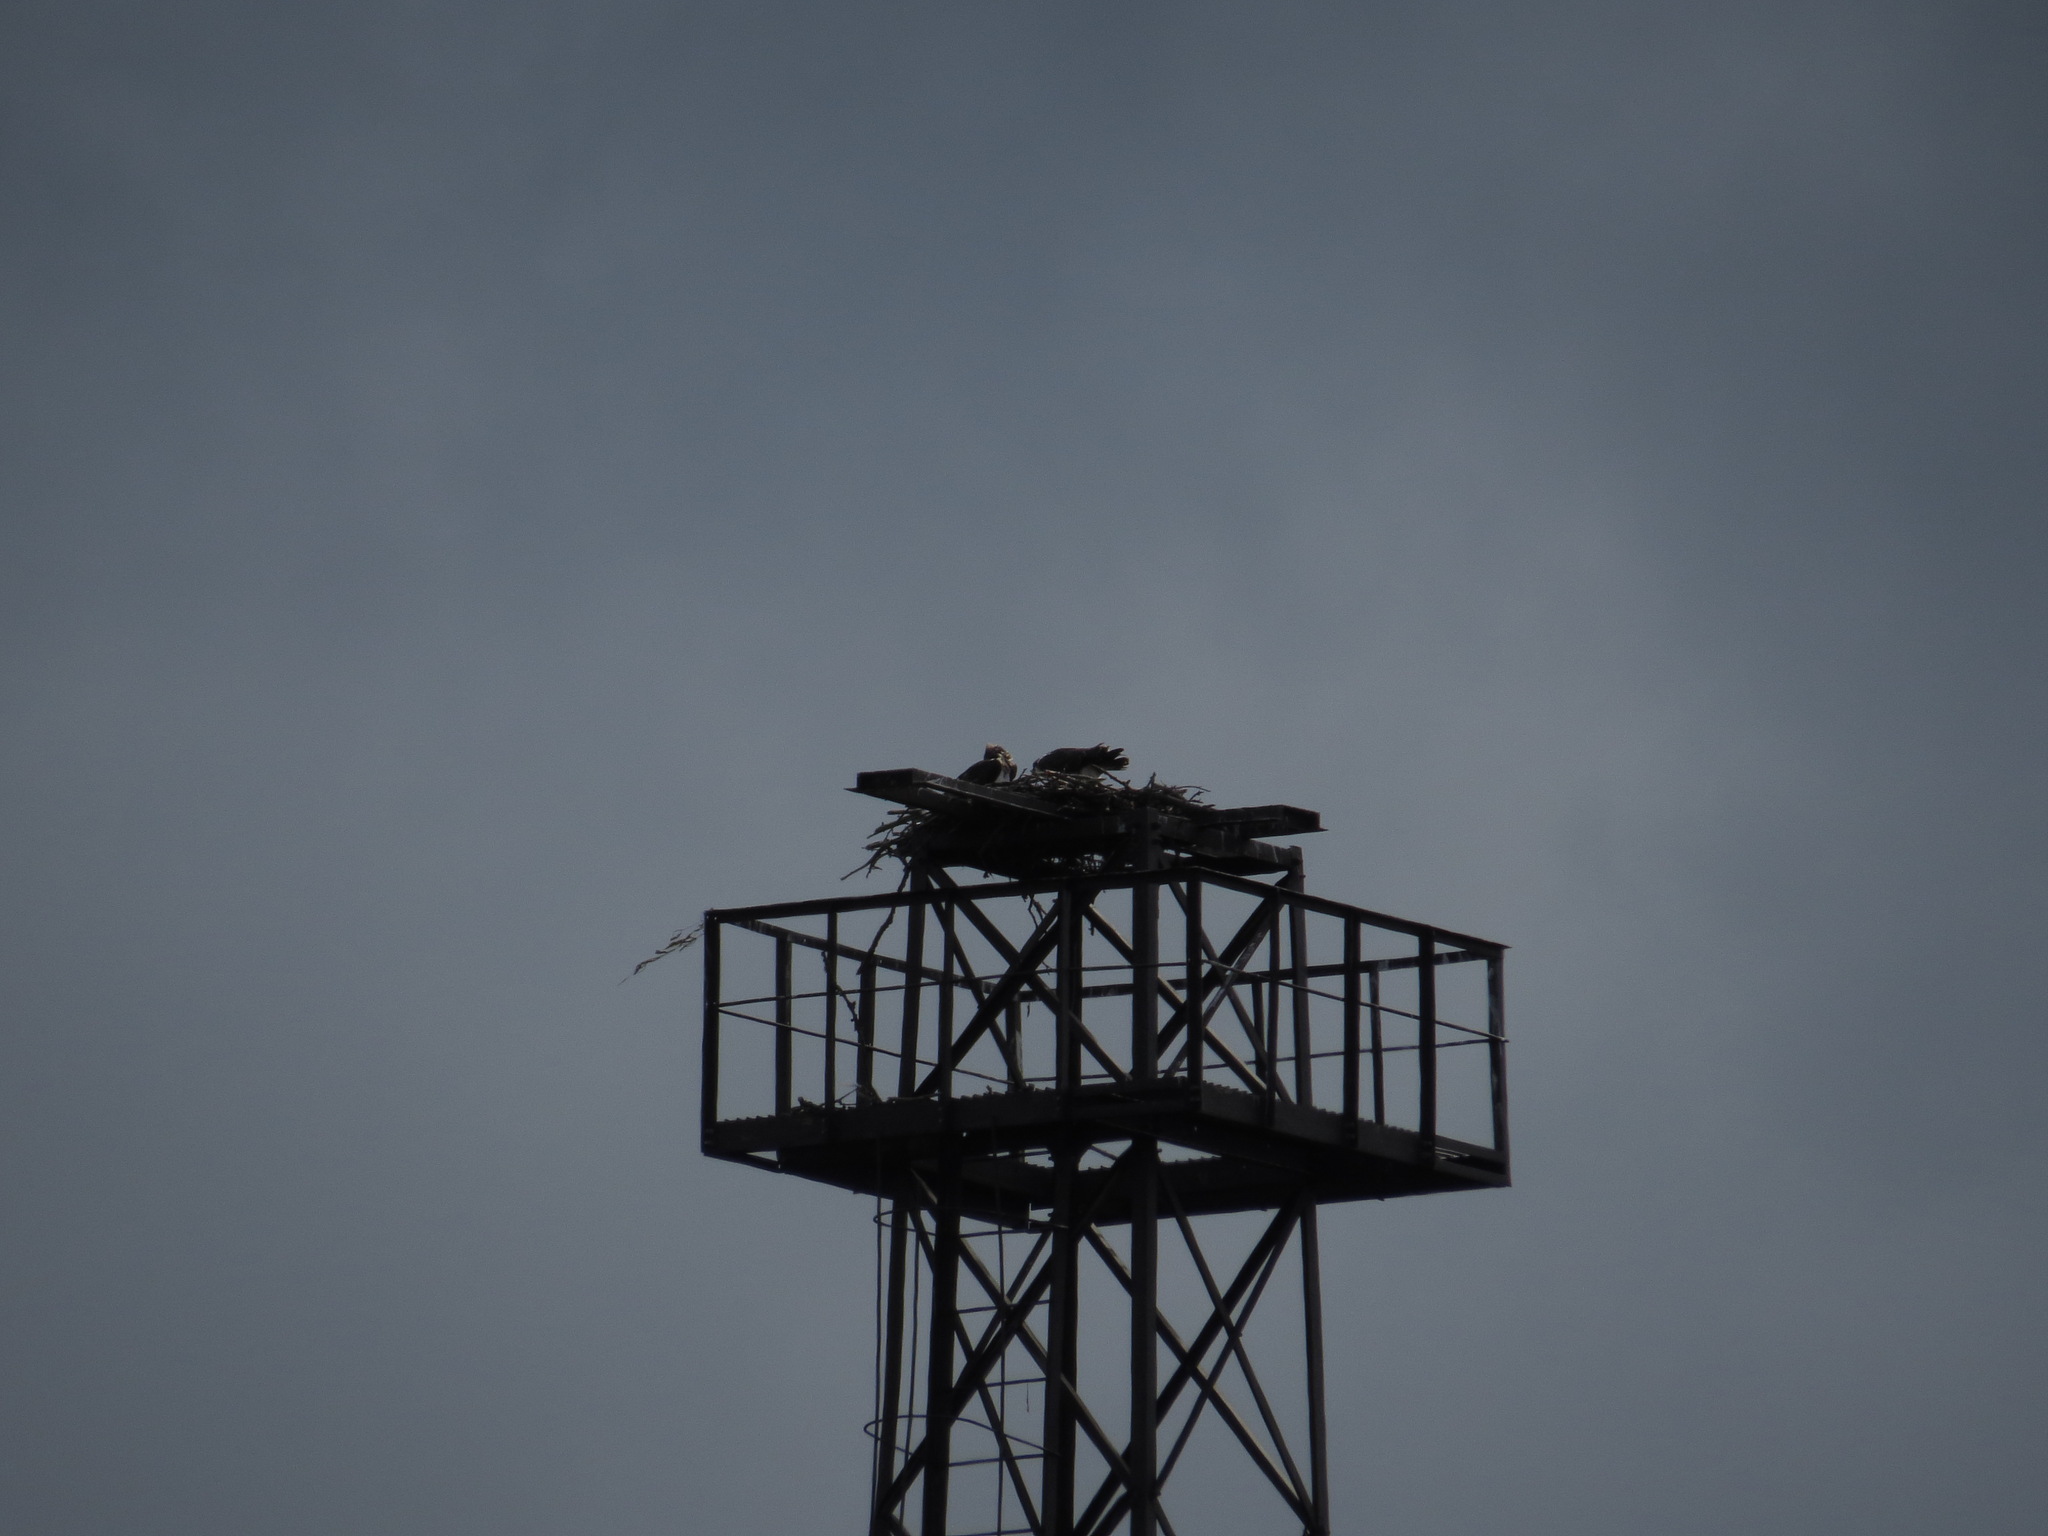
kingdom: Animalia
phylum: Chordata
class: Aves
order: Accipitriformes
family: Pandionidae
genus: Pandion
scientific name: Pandion haliaetus
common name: Osprey
